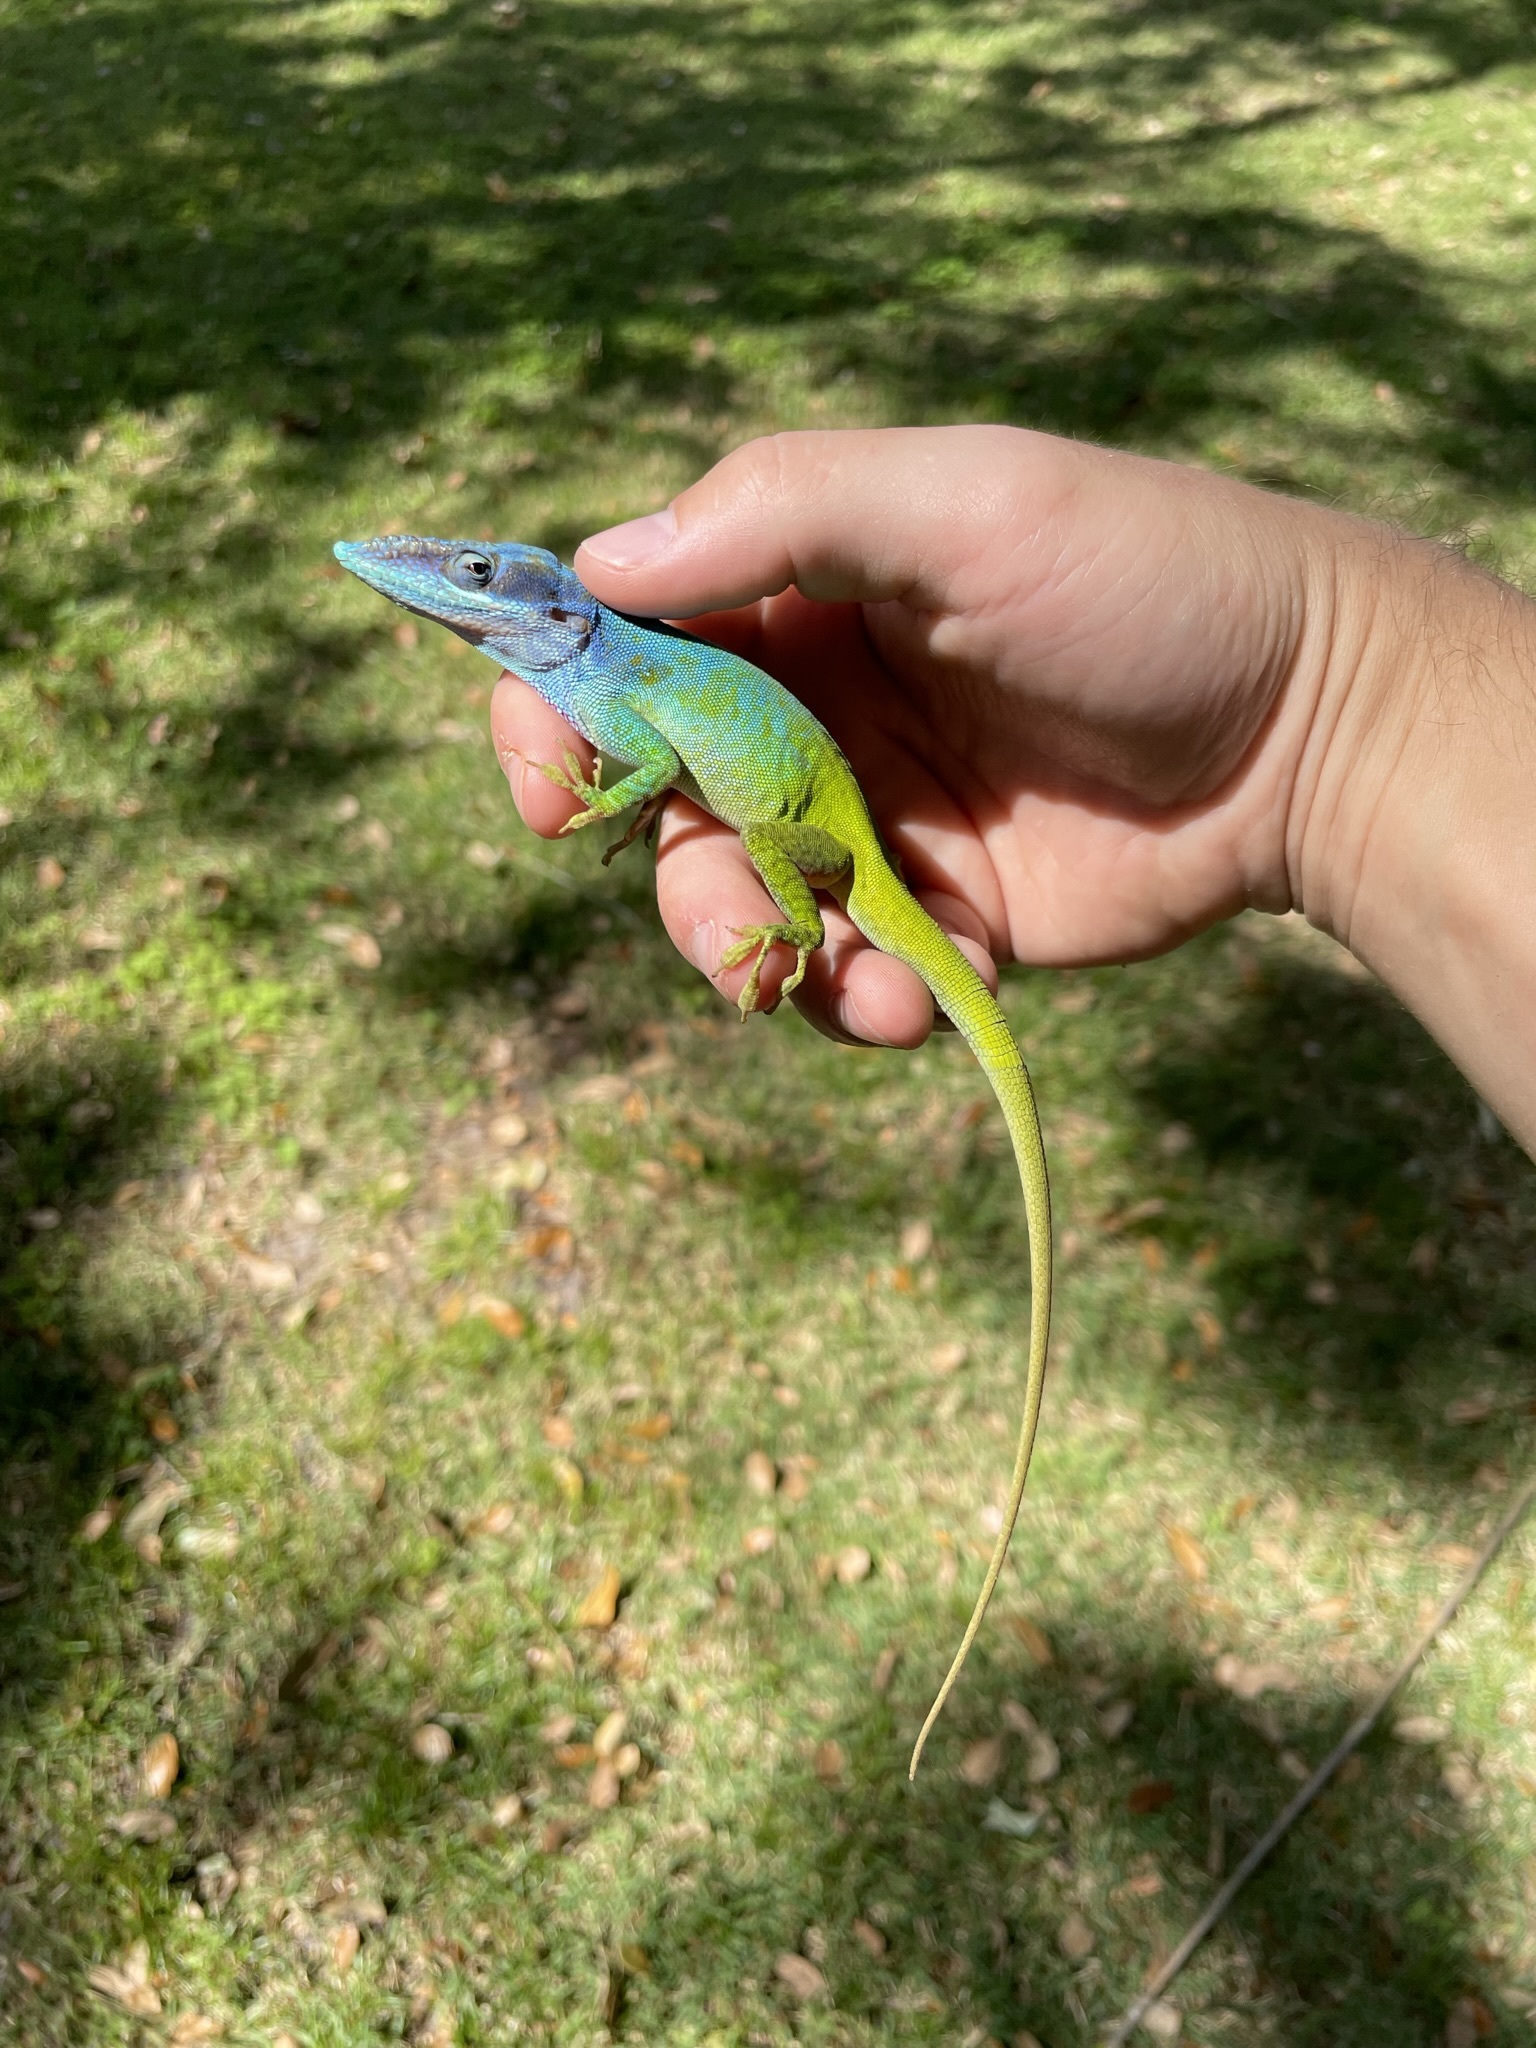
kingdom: Animalia
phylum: Chordata
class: Squamata
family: Dactyloidae
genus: Anolis
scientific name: Anolis allisoni
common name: Allison's anole
